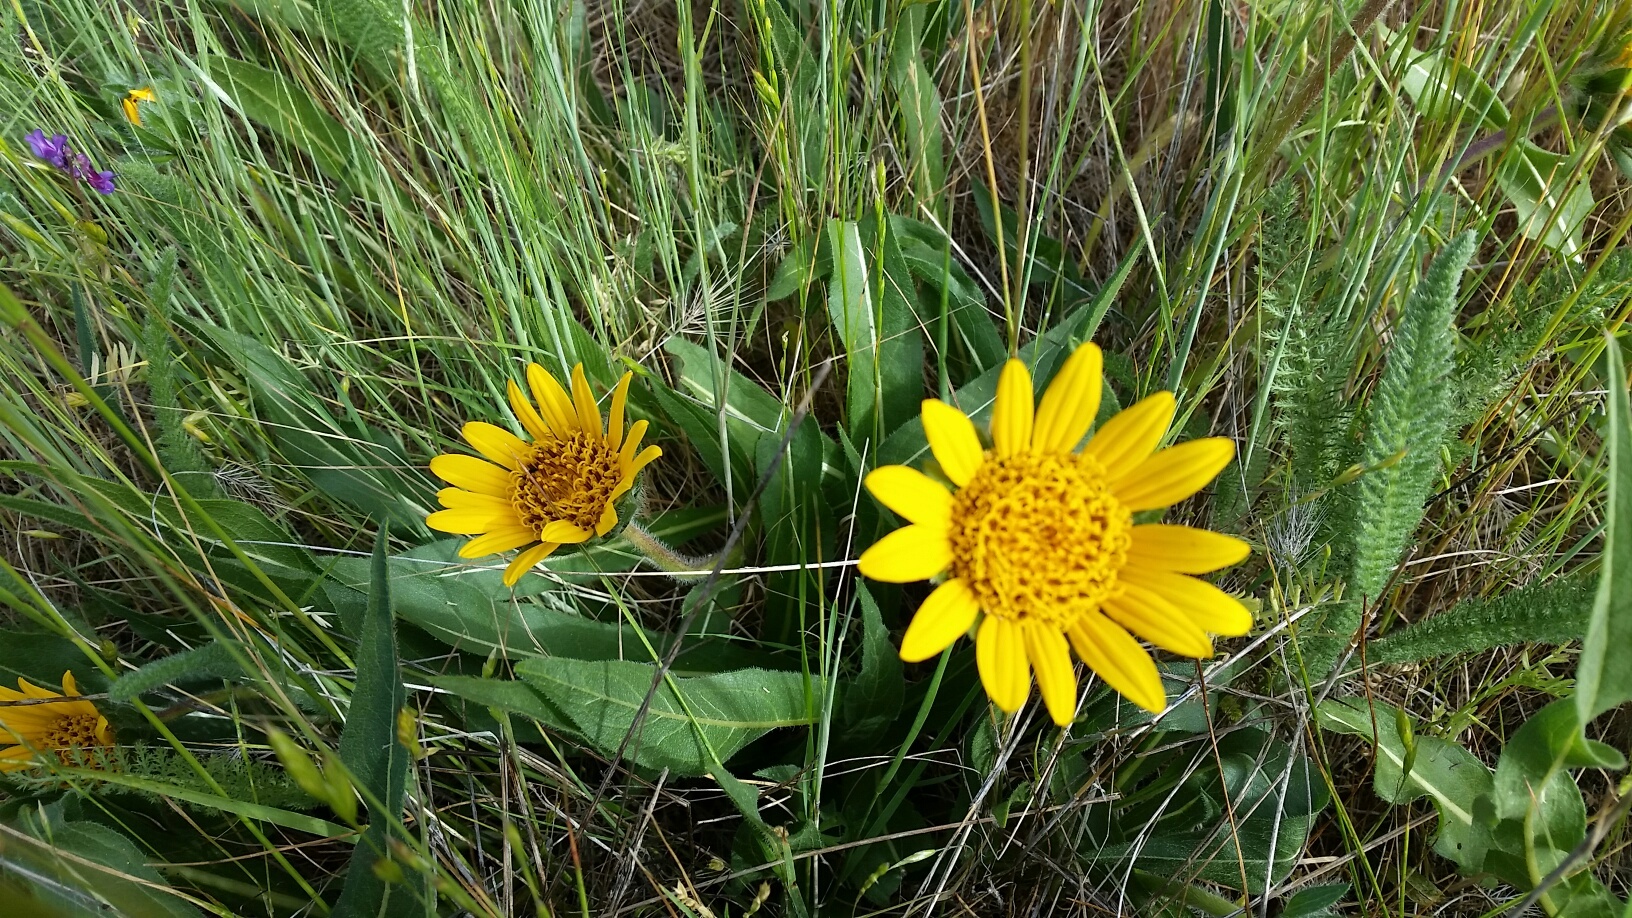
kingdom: Plantae
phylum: Tracheophyta
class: Magnoliopsida
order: Asterales
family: Asteraceae
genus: Wyethia
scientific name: Wyethia angustifolia
